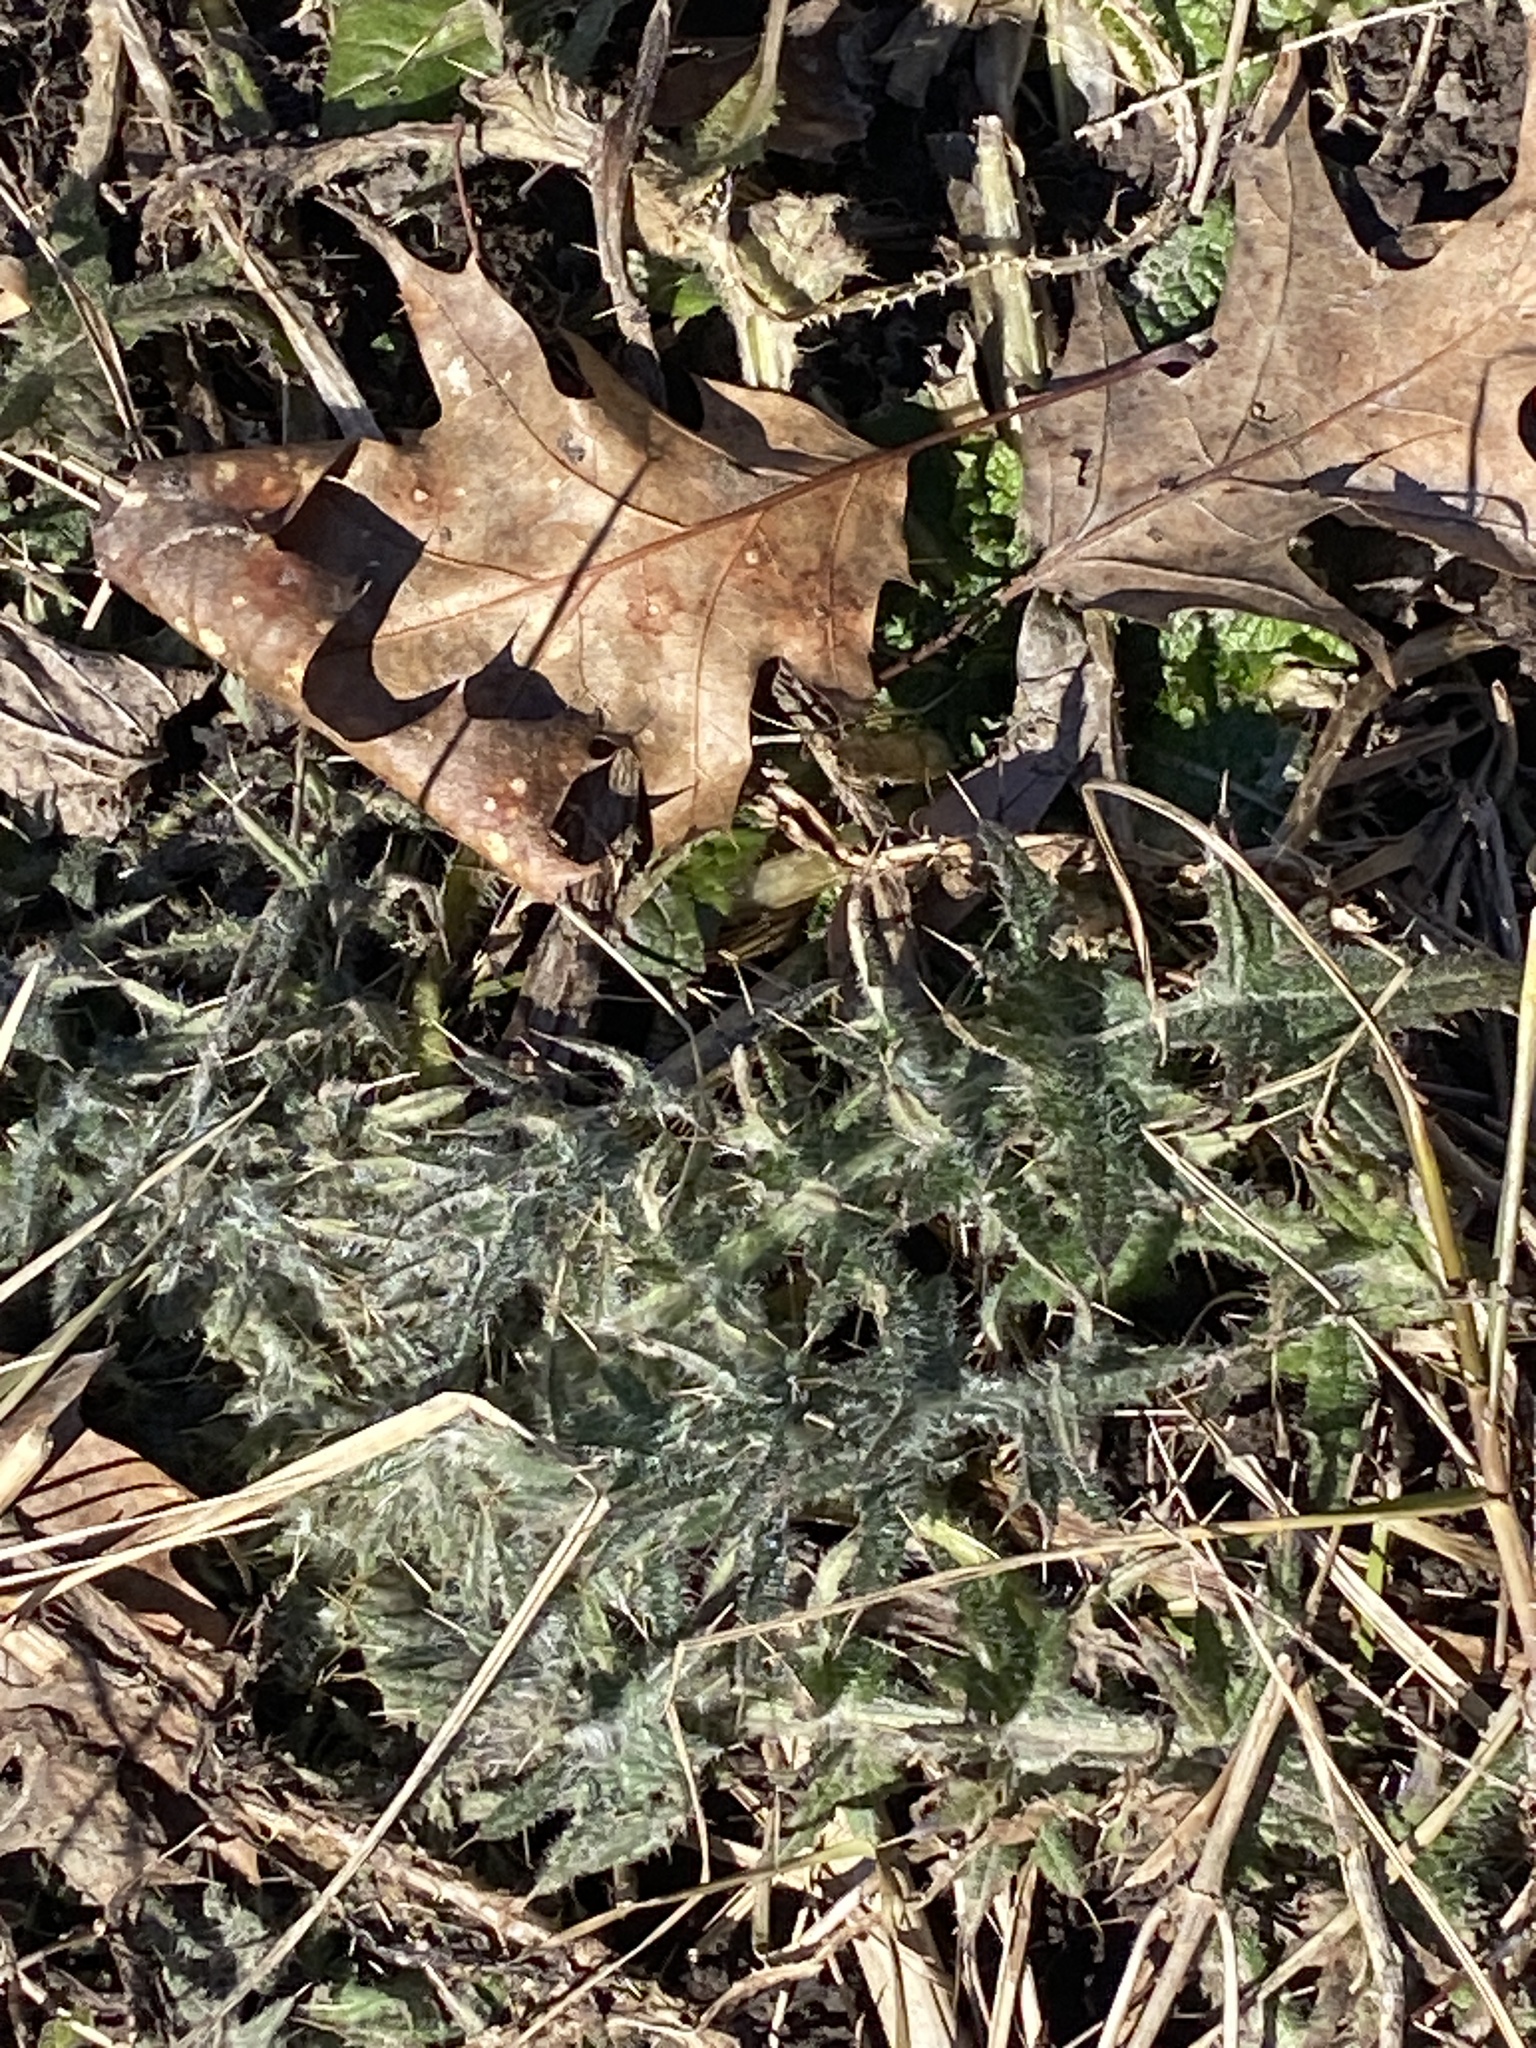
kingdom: Plantae
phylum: Tracheophyta
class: Magnoliopsida
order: Asterales
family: Asteraceae
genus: Cirsium
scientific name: Cirsium vulgare
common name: Bull thistle
